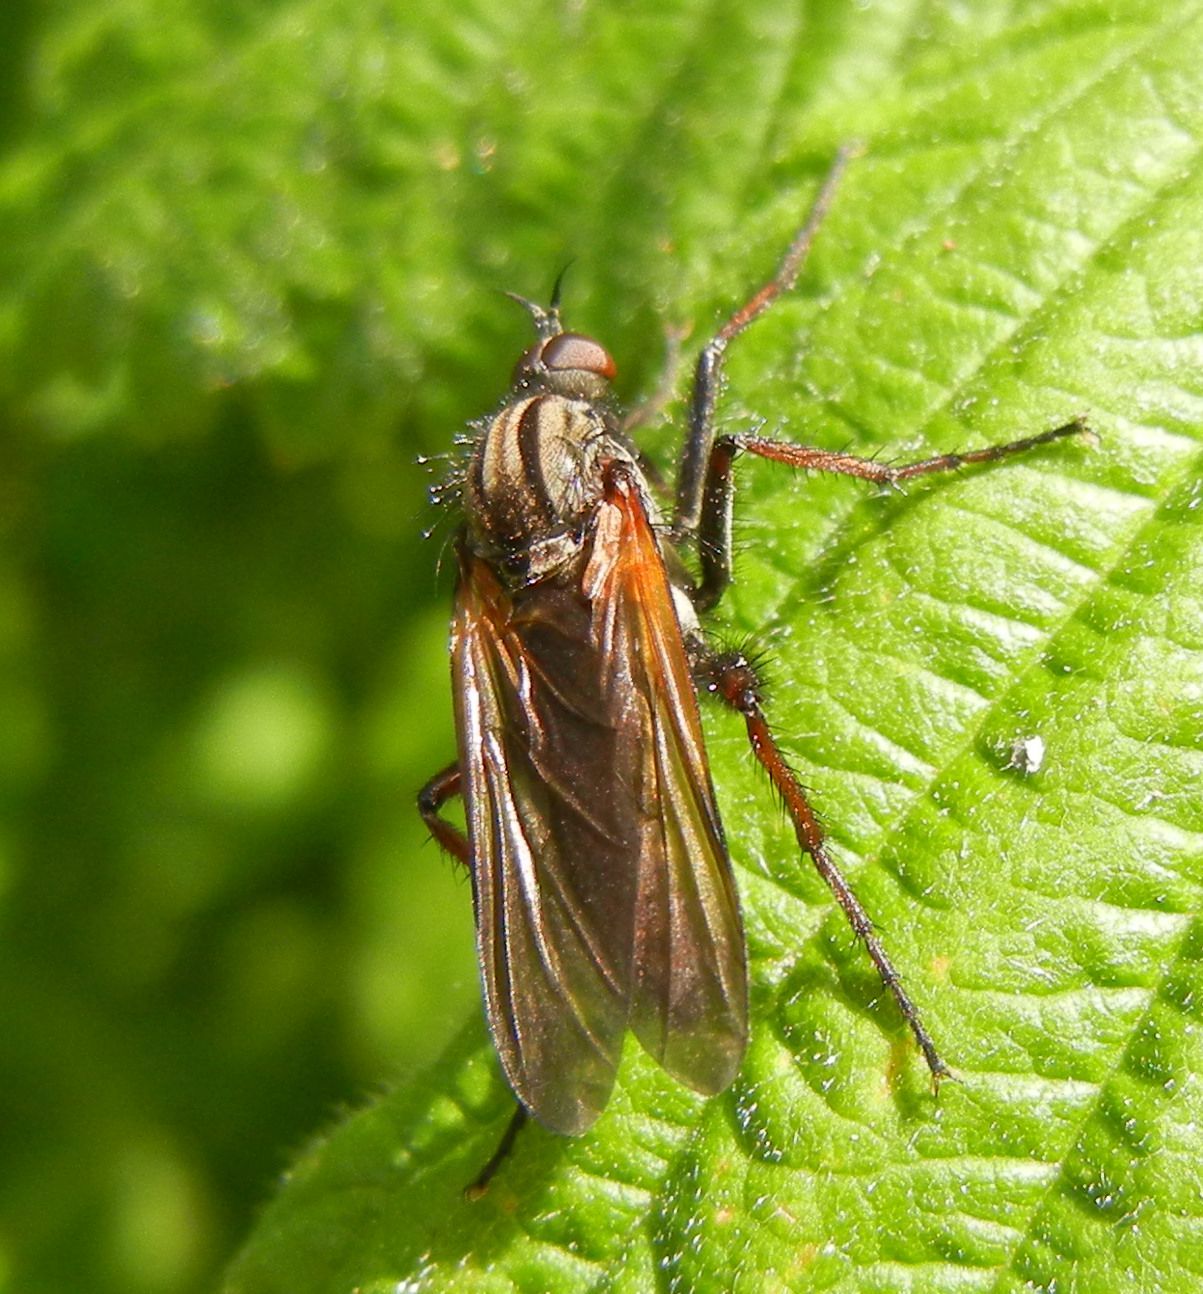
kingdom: Animalia
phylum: Arthropoda
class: Insecta
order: Diptera
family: Empididae
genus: Empis
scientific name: Empis tessellata
